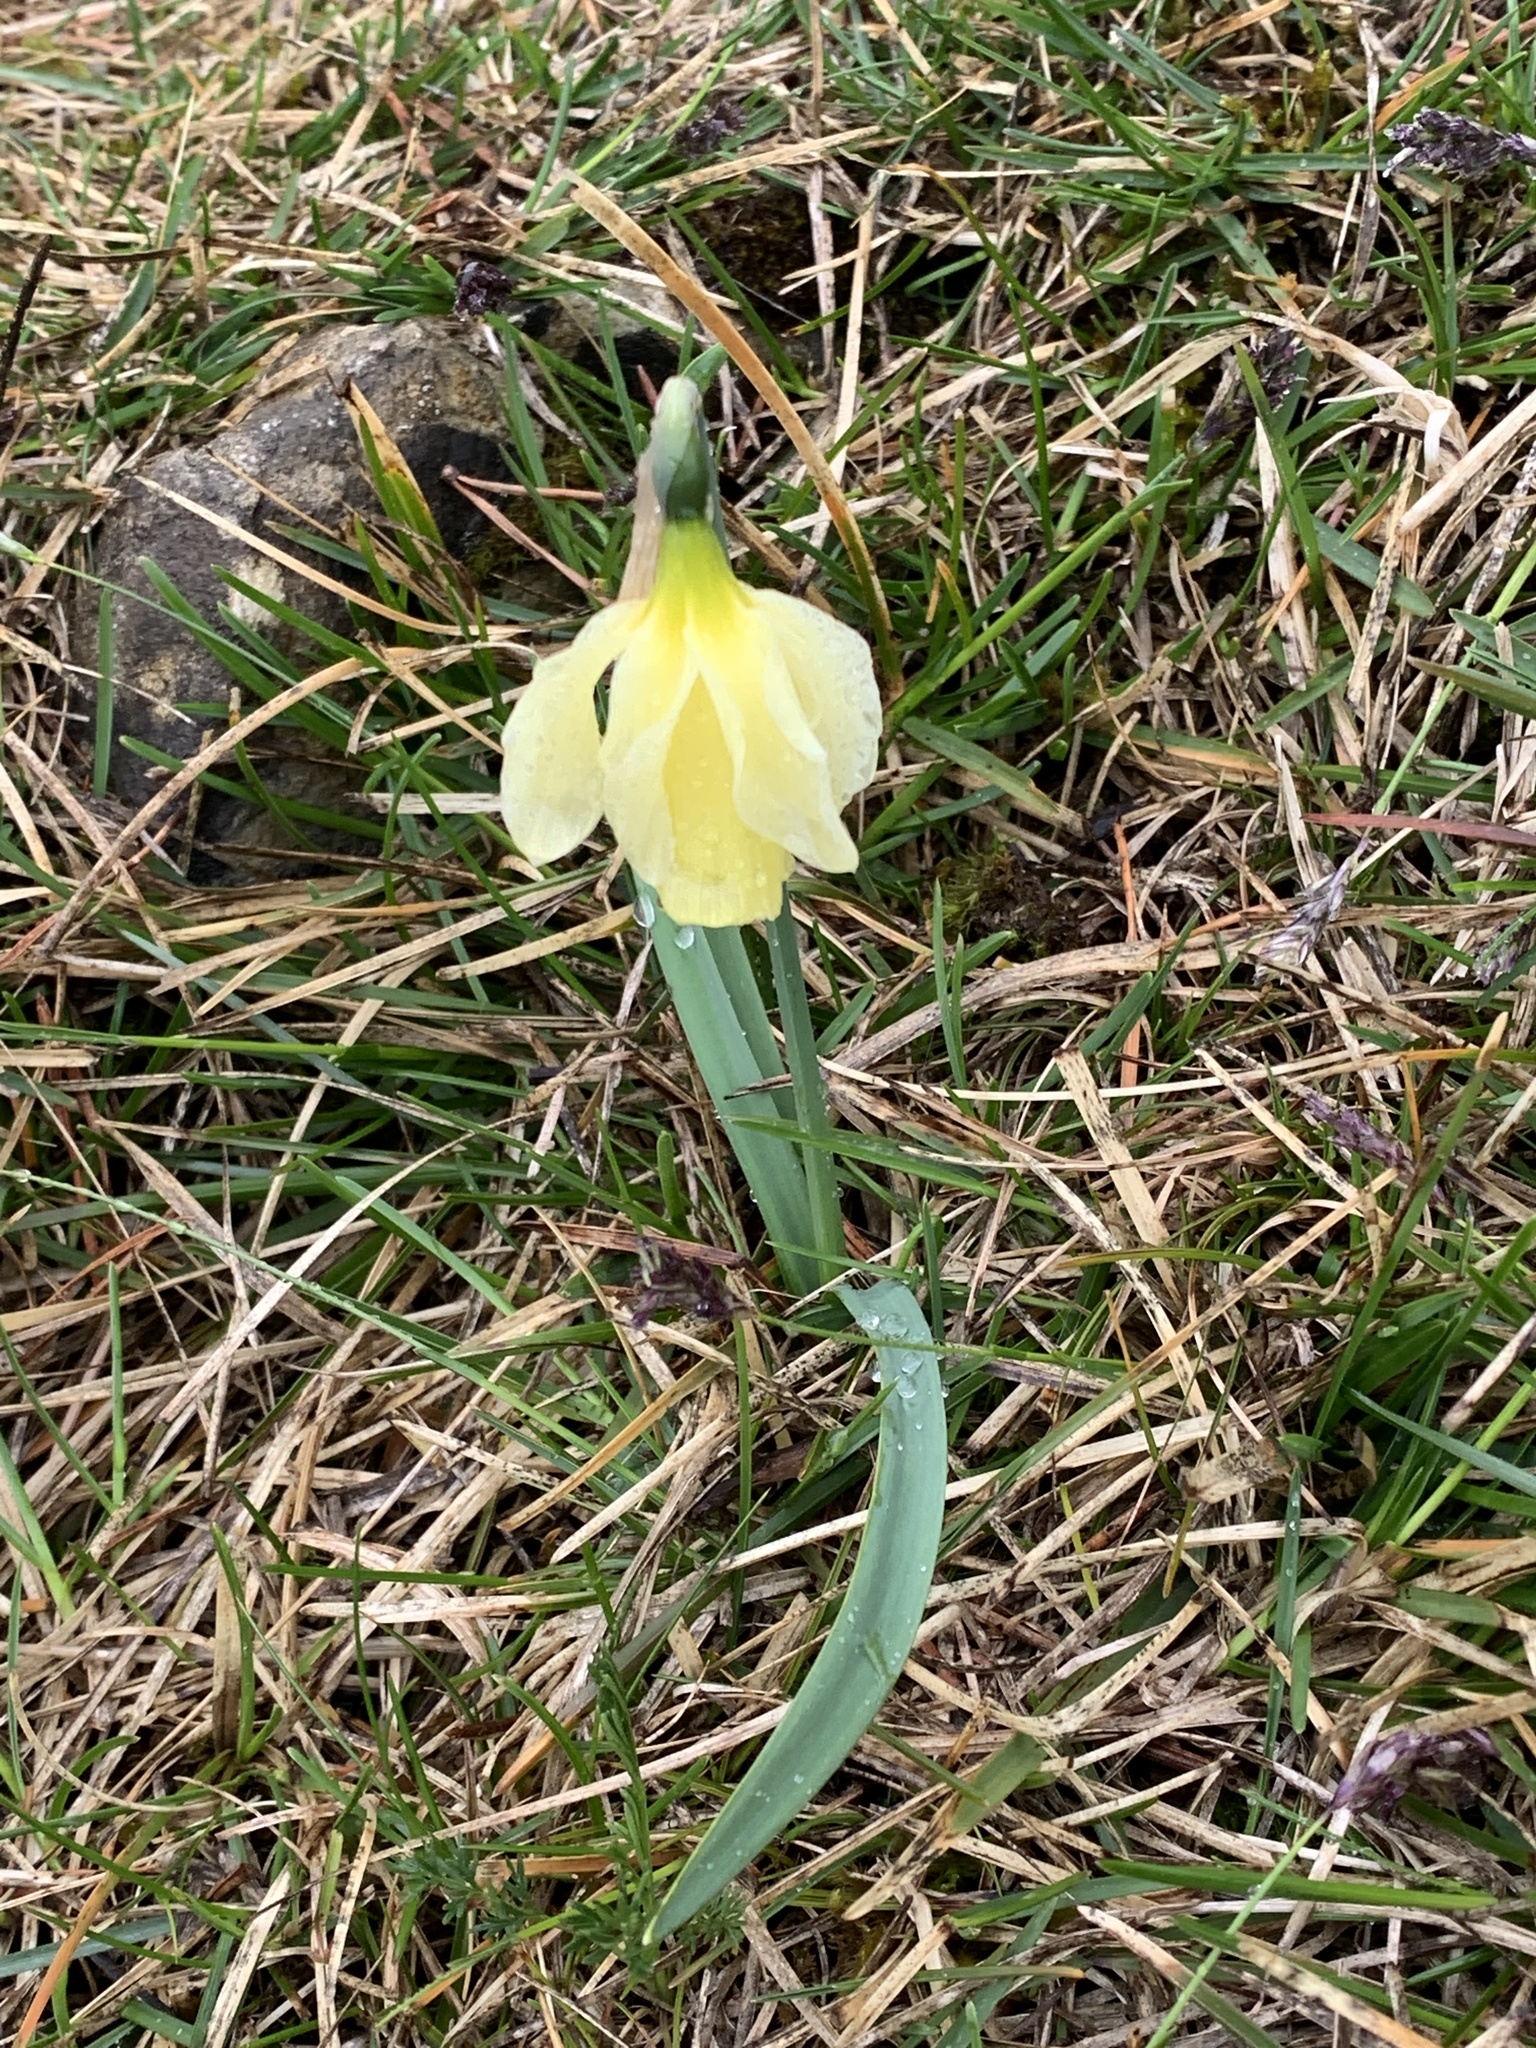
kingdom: Plantae
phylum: Tracheophyta
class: Liliopsida
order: Asparagales
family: Amaryllidaceae
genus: Narcissus
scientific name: Narcissus moleroi
